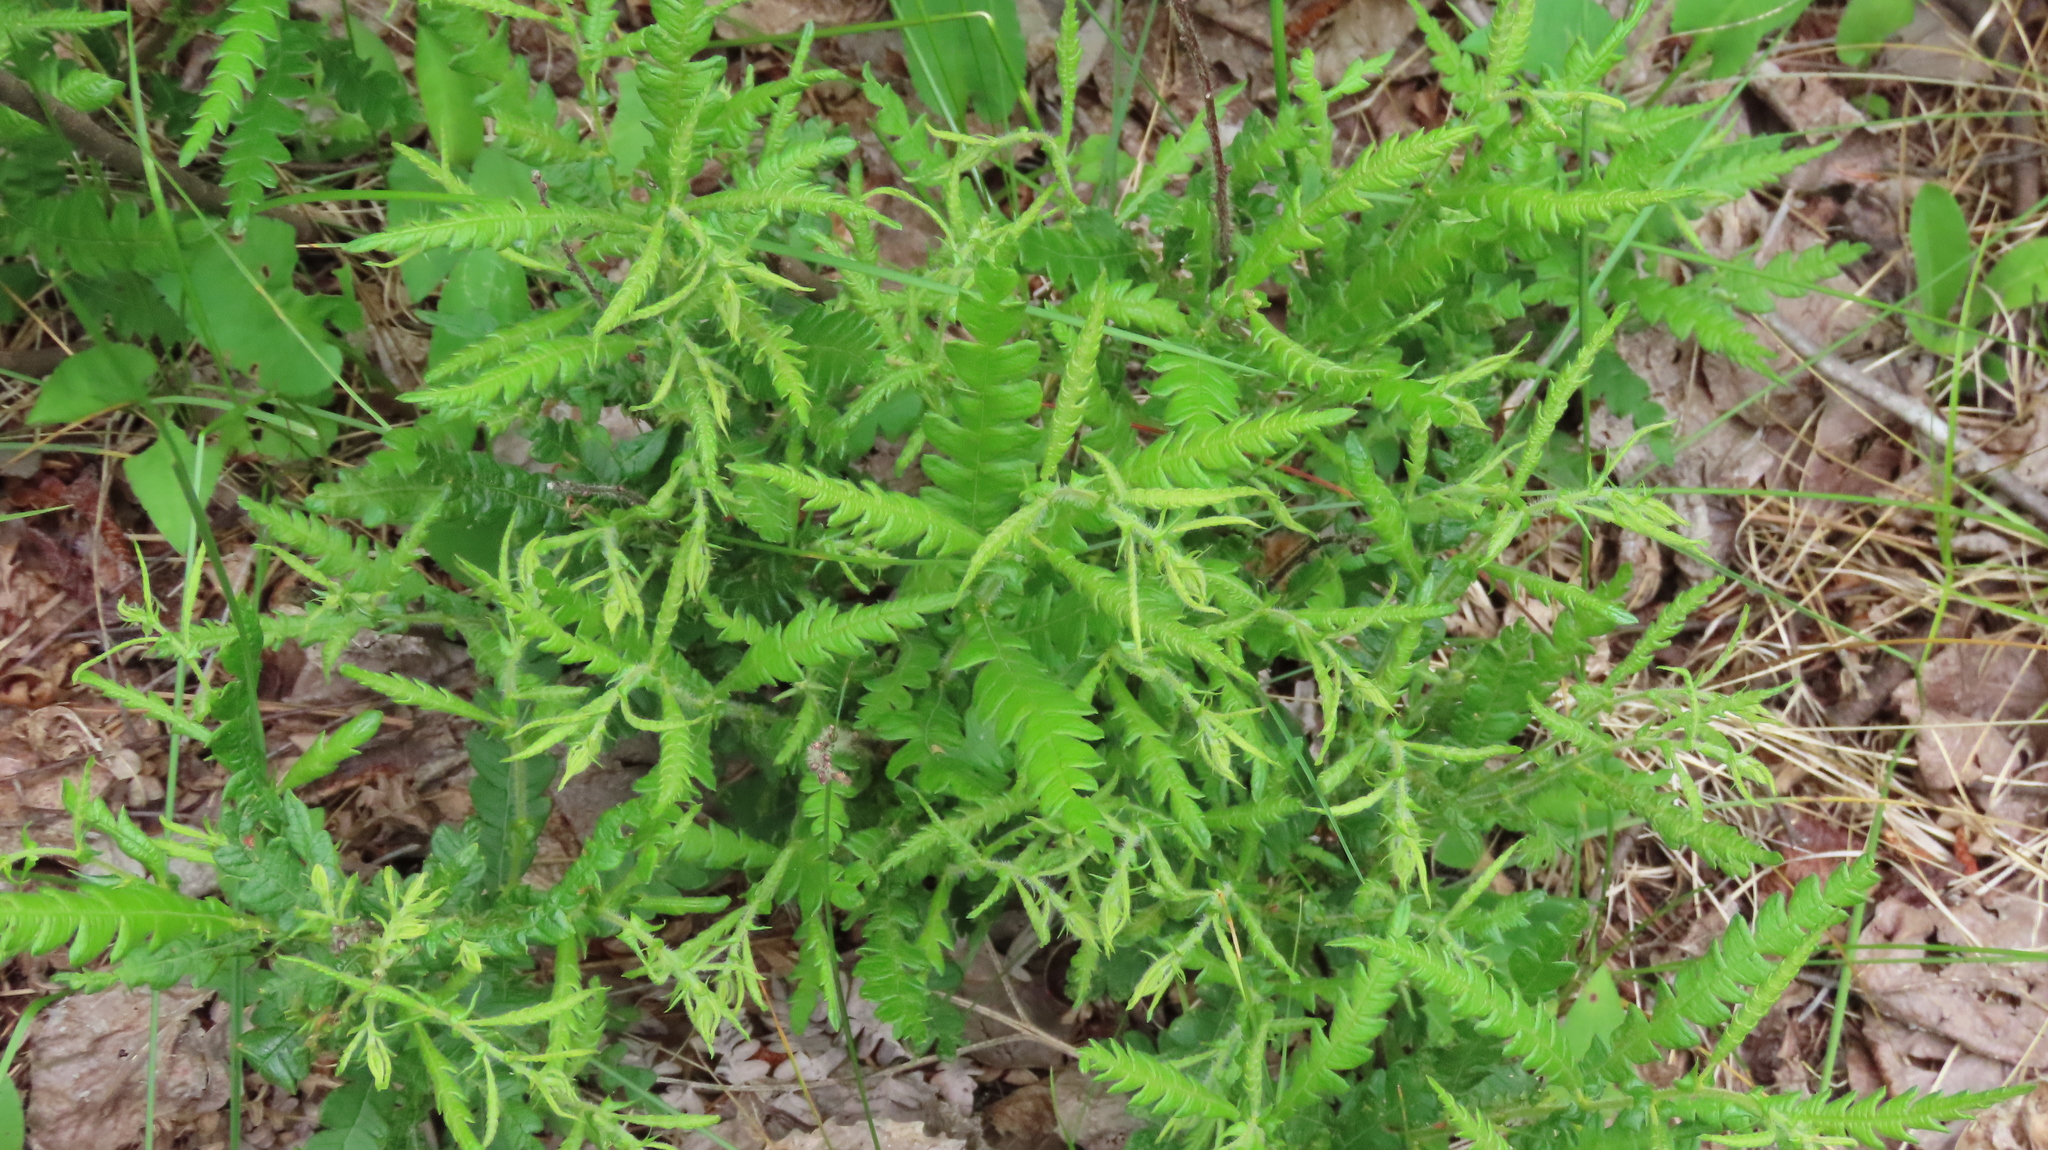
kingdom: Plantae
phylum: Tracheophyta
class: Magnoliopsida
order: Fagales
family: Myricaceae
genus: Comptonia
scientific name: Comptonia peregrina
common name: Sweet-fern
